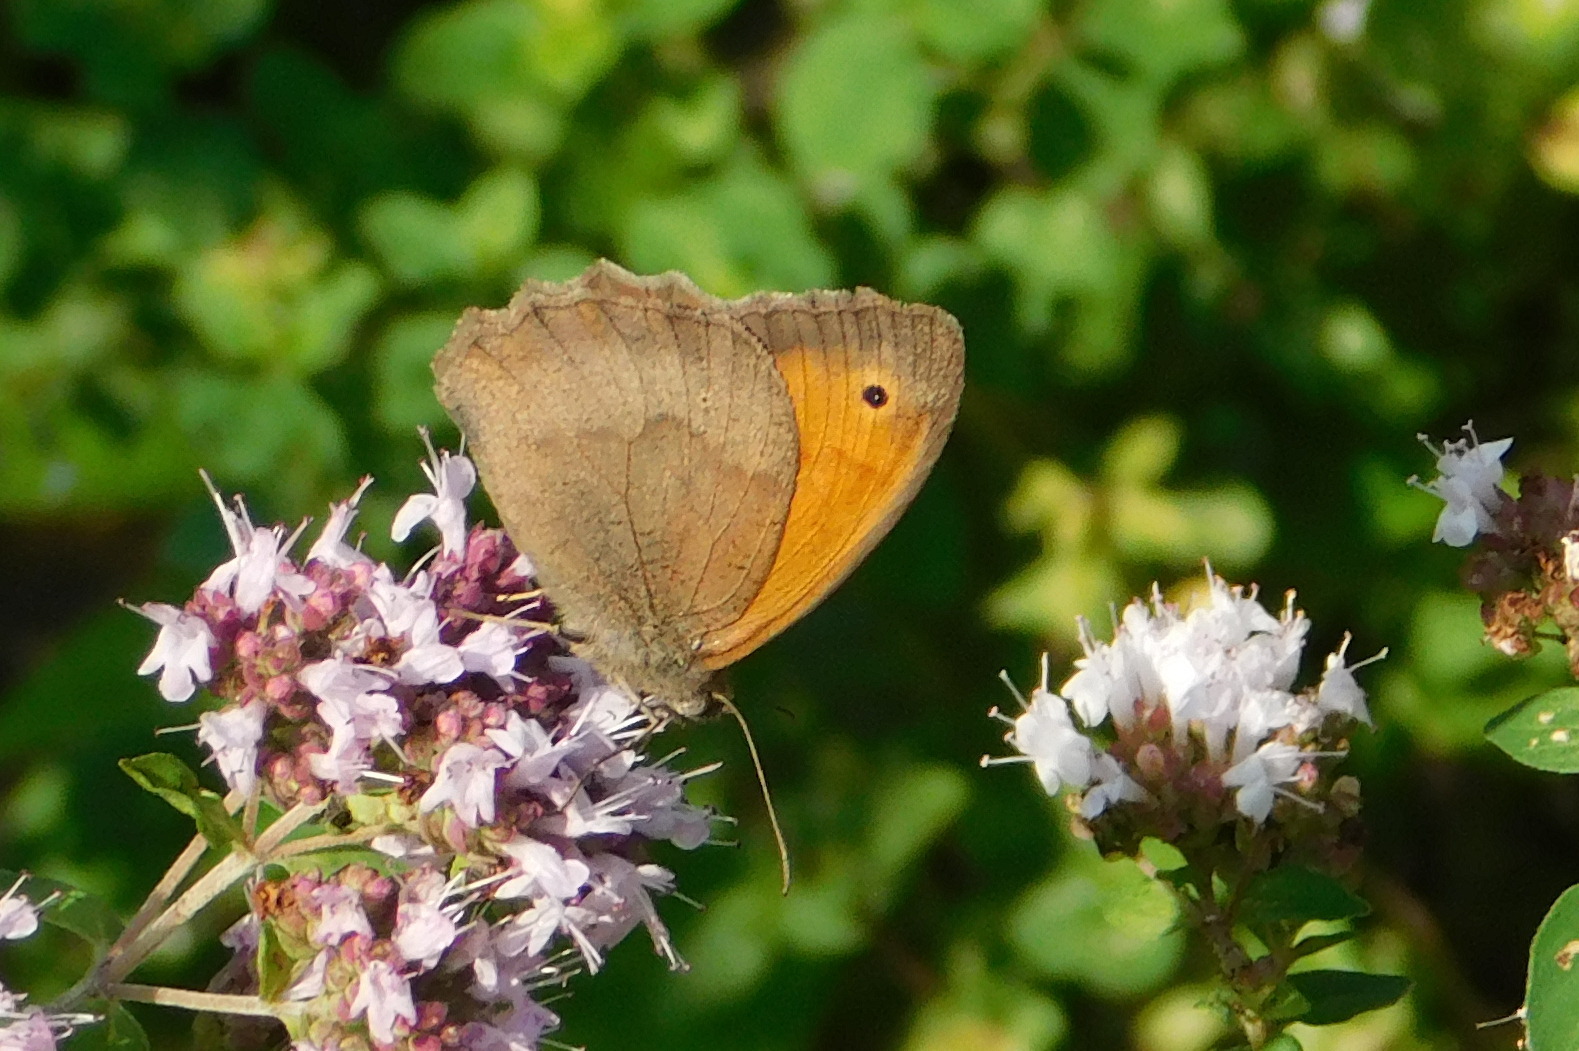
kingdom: Animalia
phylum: Arthropoda
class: Insecta
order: Lepidoptera
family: Nymphalidae
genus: Maniola
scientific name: Maniola jurtina
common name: Meadow brown
